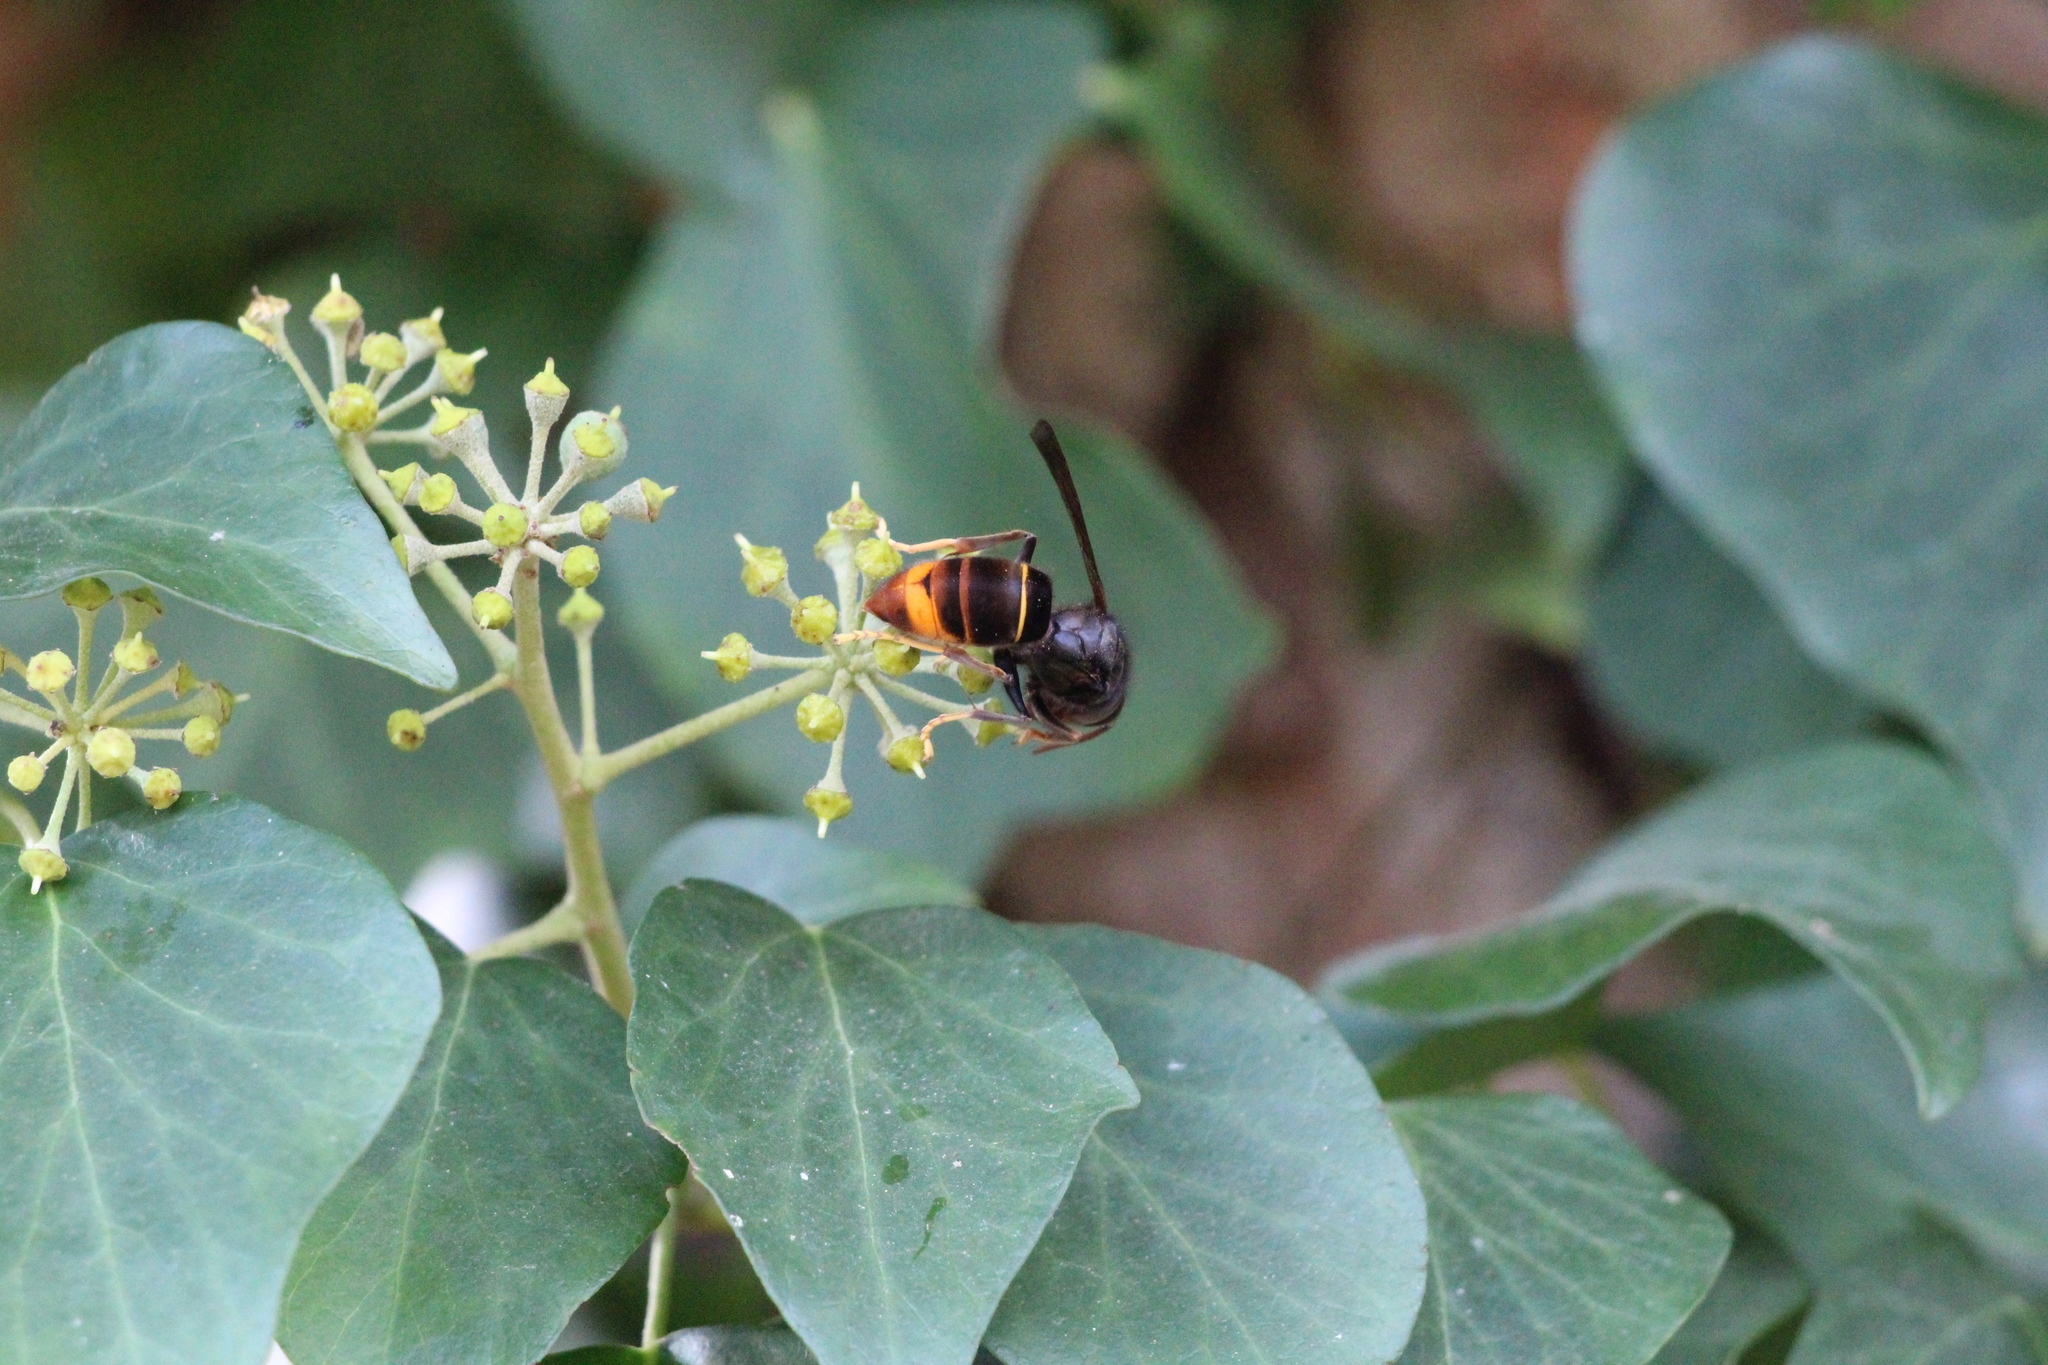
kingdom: Animalia
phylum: Arthropoda
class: Insecta
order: Hymenoptera
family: Vespidae
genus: Vespa
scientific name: Vespa velutina
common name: Asian hornet
